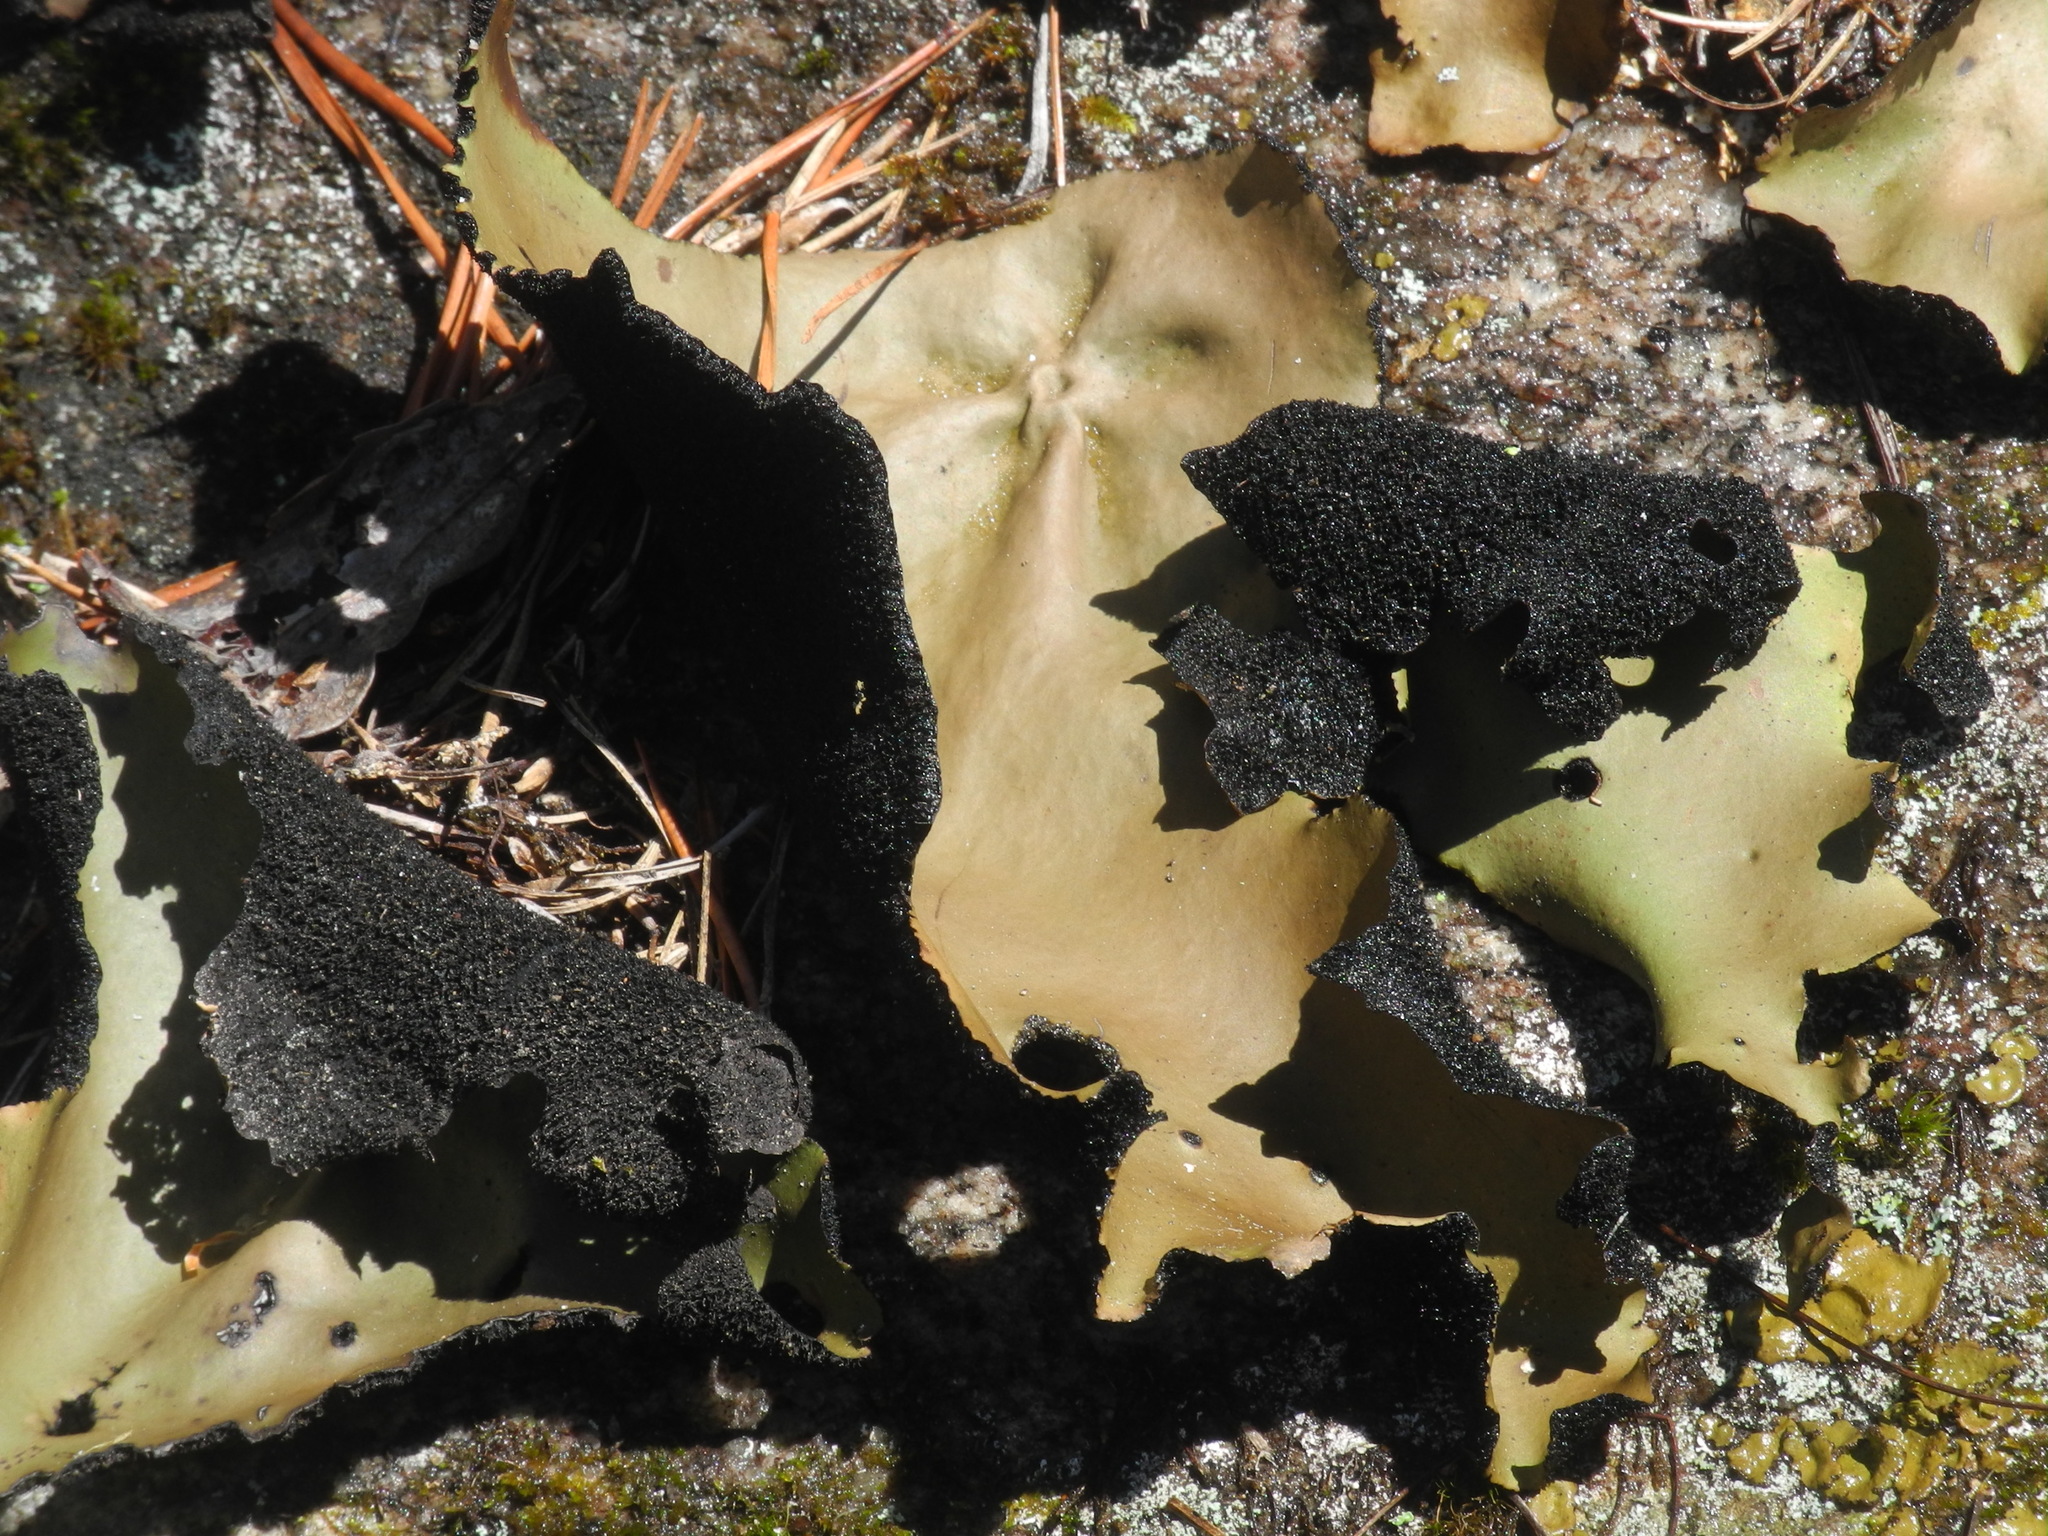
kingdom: Fungi
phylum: Ascomycota
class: Lecanoromycetes
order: Umbilicariales
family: Umbilicariaceae
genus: Umbilicaria
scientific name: Umbilicaria mammulata
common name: Smooth rock tripe
